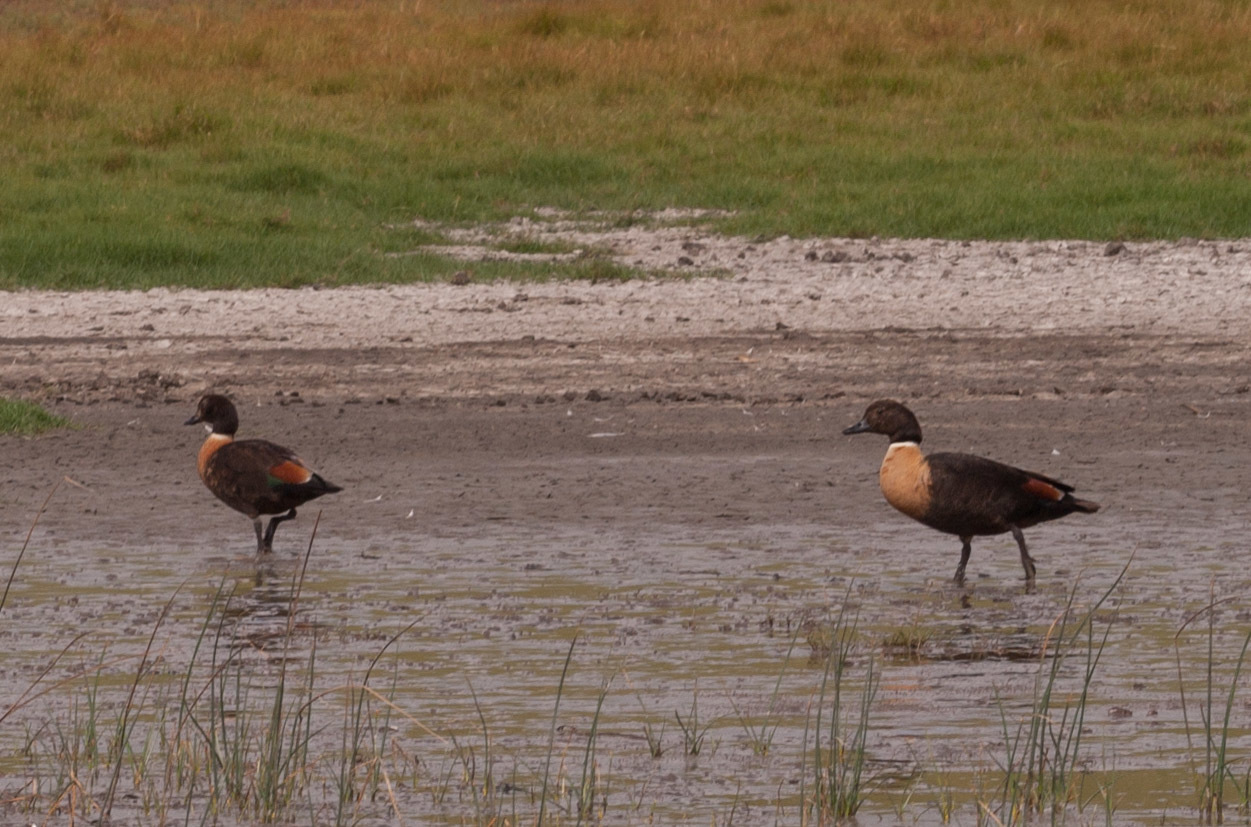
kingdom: Animalia
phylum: Chordata
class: Aves
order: Anseriformes
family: Anatidae
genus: Tadorna
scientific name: Tadorna tadornoides
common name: Australian shelduck
